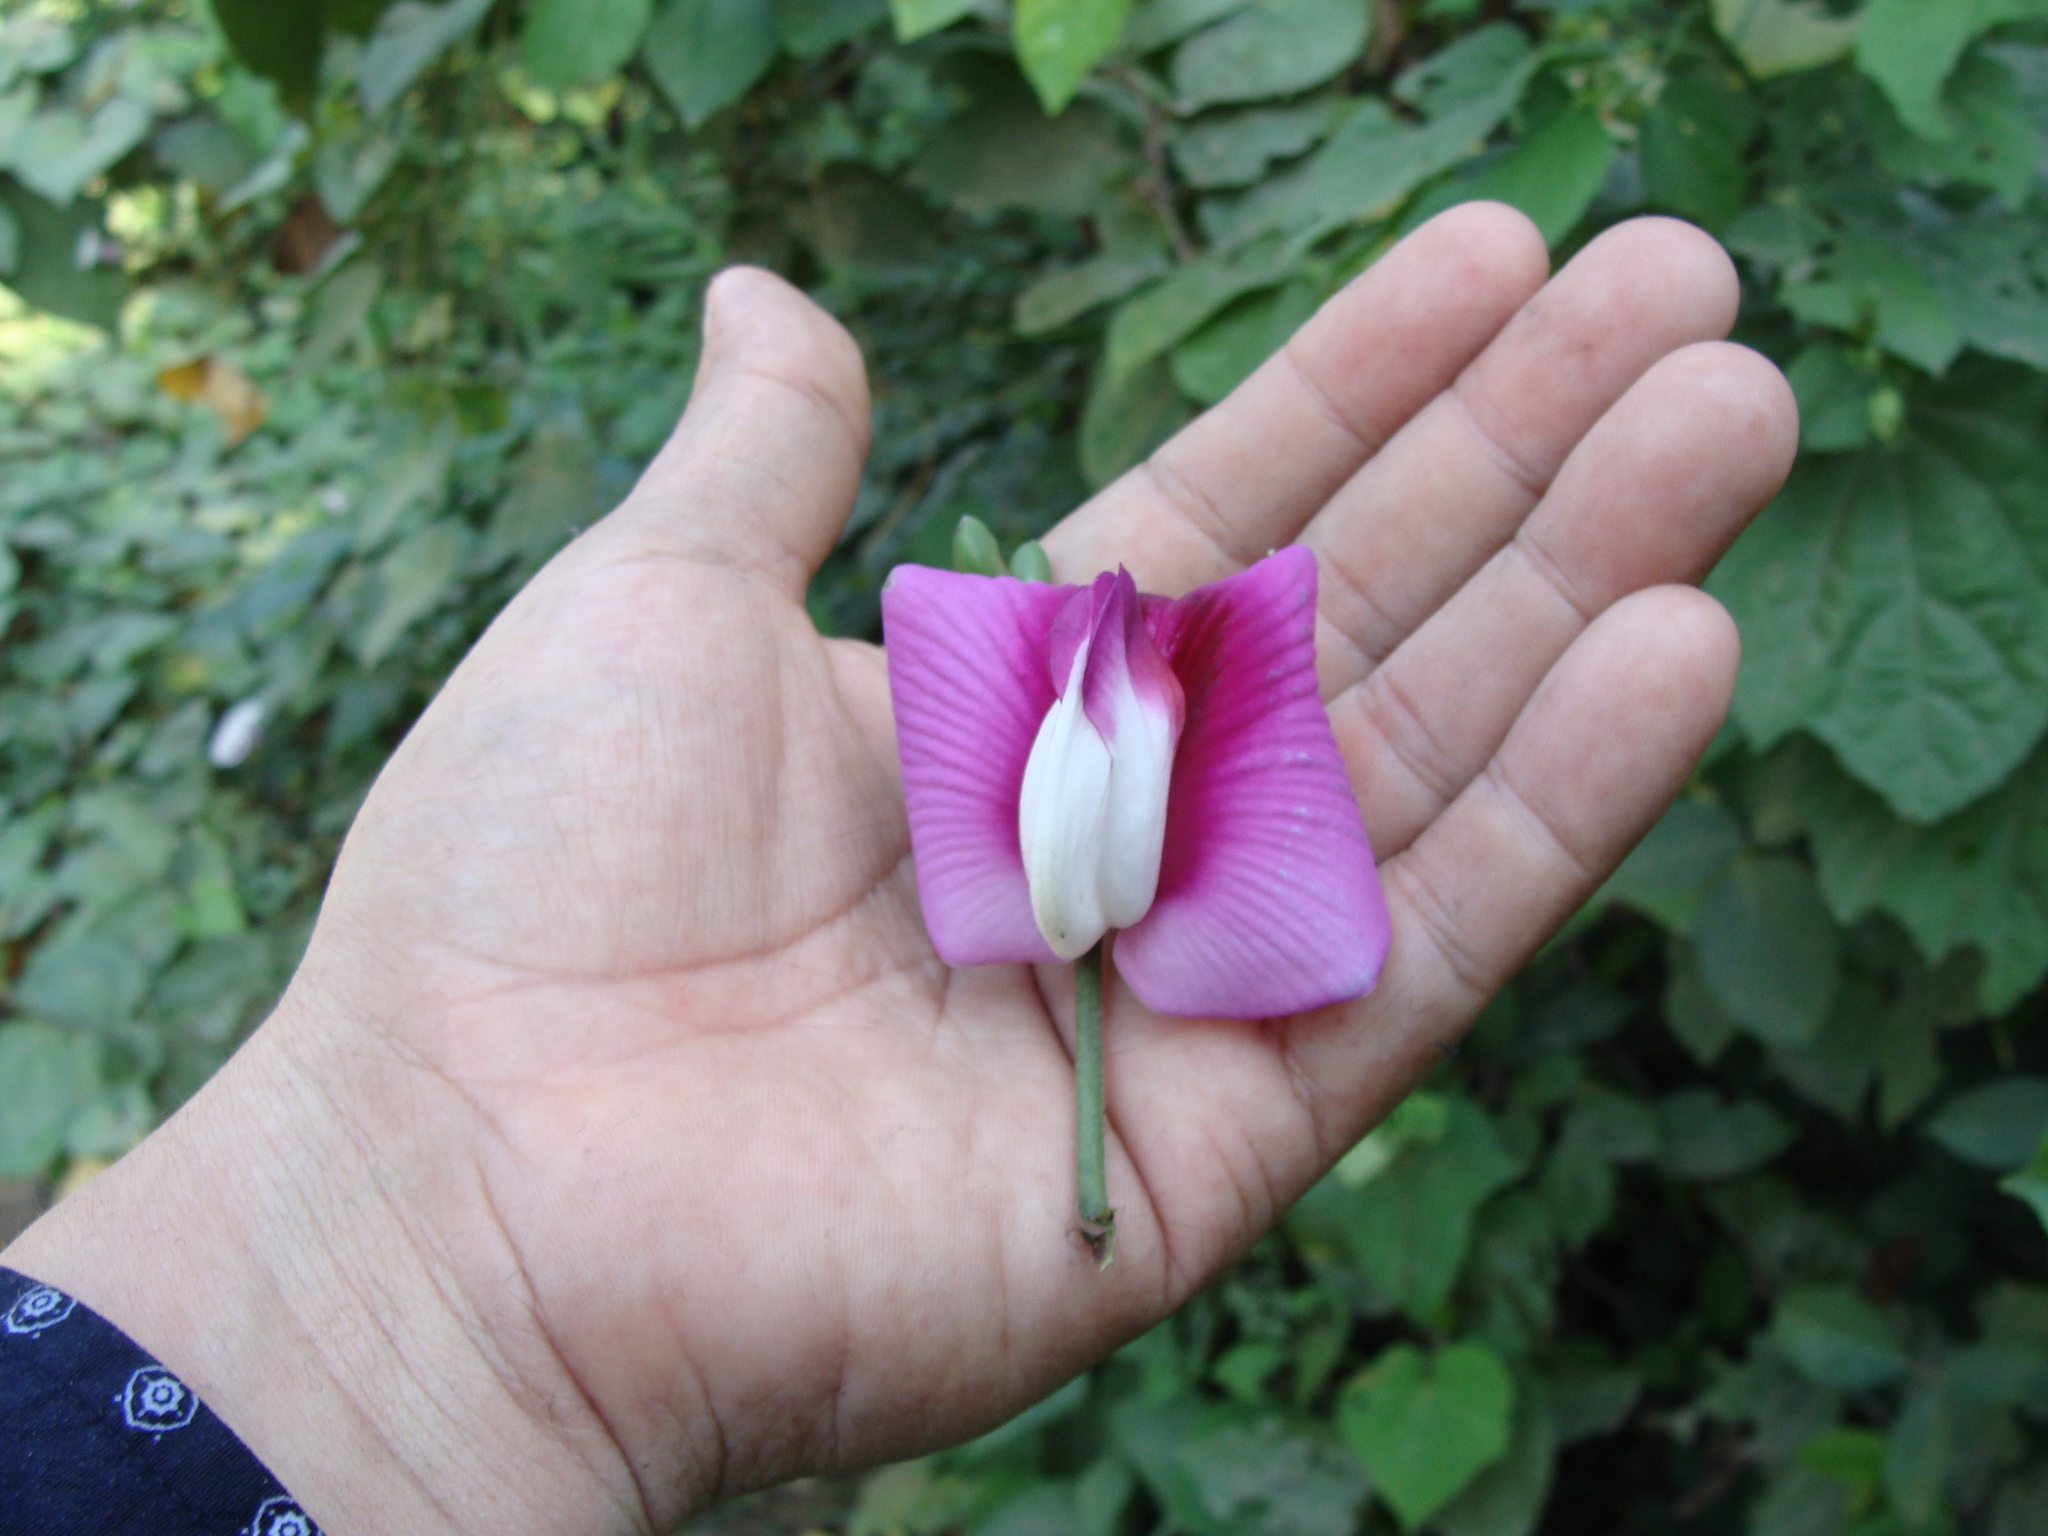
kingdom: Plantae
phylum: Tracheophyta
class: Magnoliopsida
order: Fabales
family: Fabaceae
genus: Centrosema
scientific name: Centrosema plumieri
